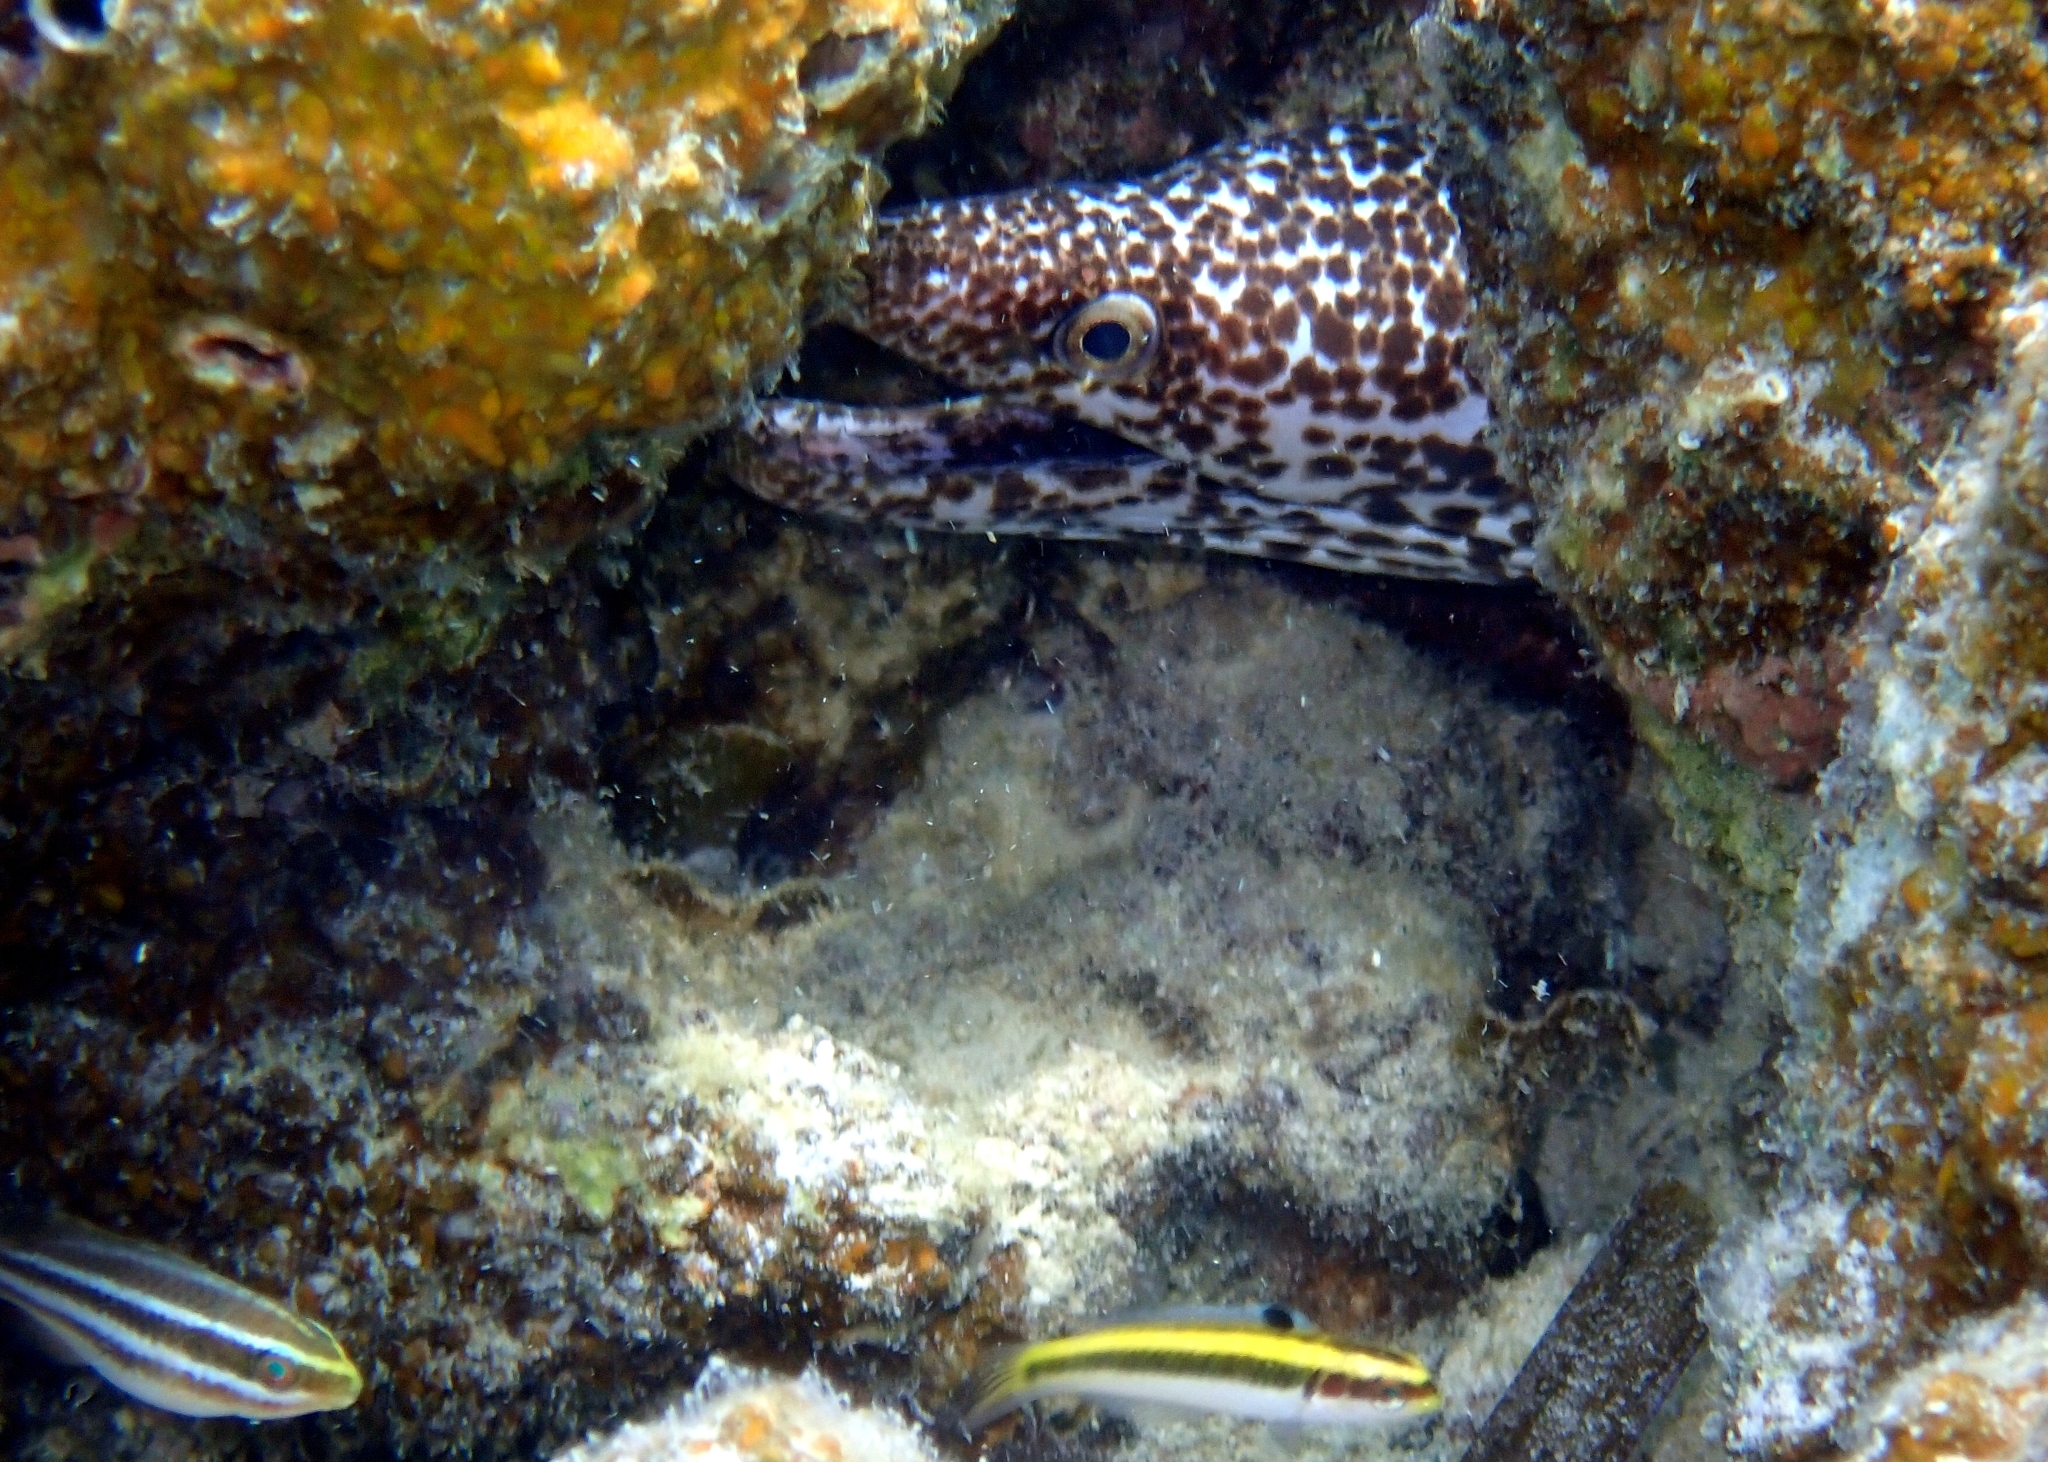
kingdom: Animalia
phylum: Chordata
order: Anguilliformes
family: Muraenidae
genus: Gymnothorax
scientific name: Gymnothorax moringa
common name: Spotted moray
